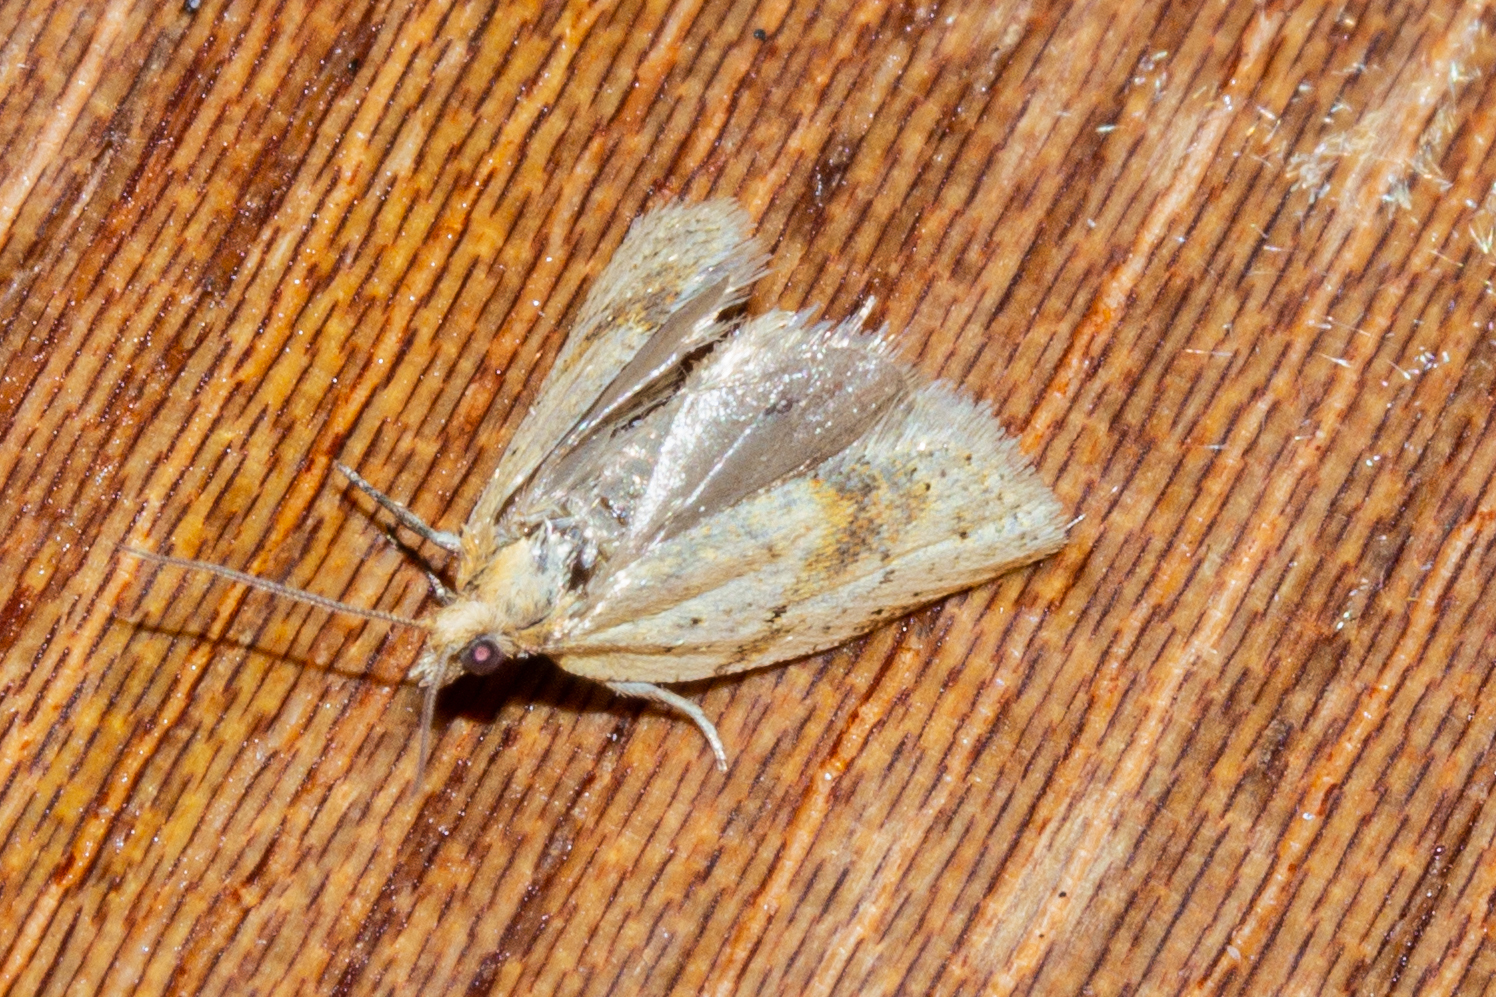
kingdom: Animalia
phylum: Arthropoda
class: Insecta
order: Lepidoptera
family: Tortricidae
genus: Clepsis
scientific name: Clepsis
